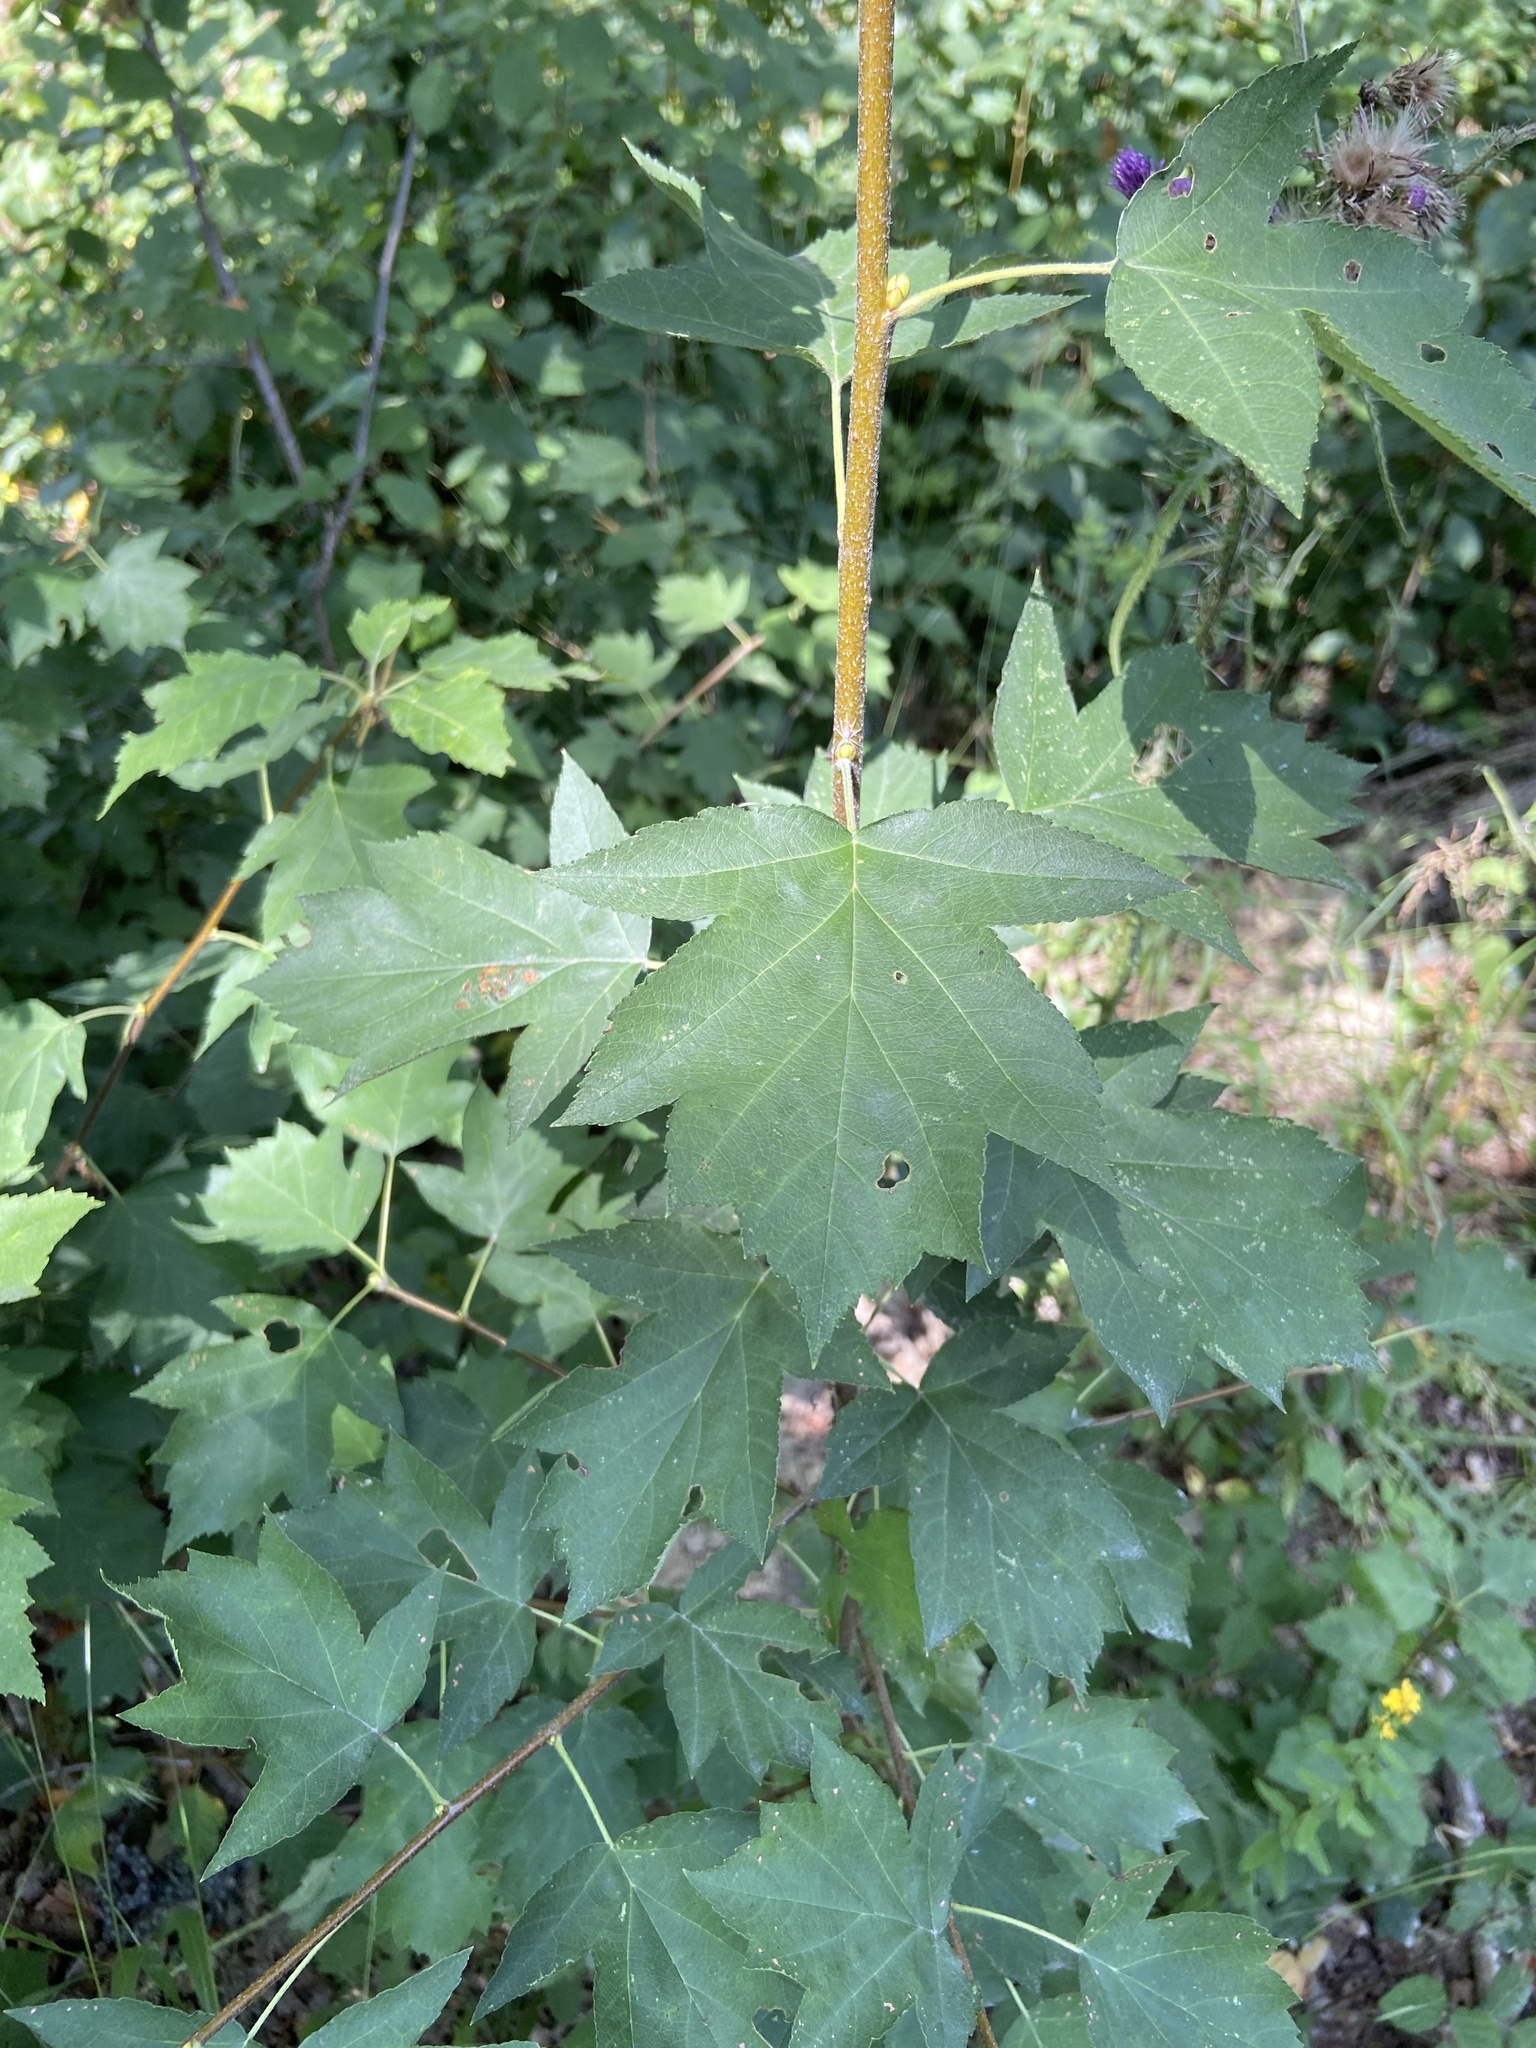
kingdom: Plantae
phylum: Tracheophyta
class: Magnoliopsida
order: Rosales
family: Rosaceae
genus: Torminalis
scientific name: Torminalis glaberrima
